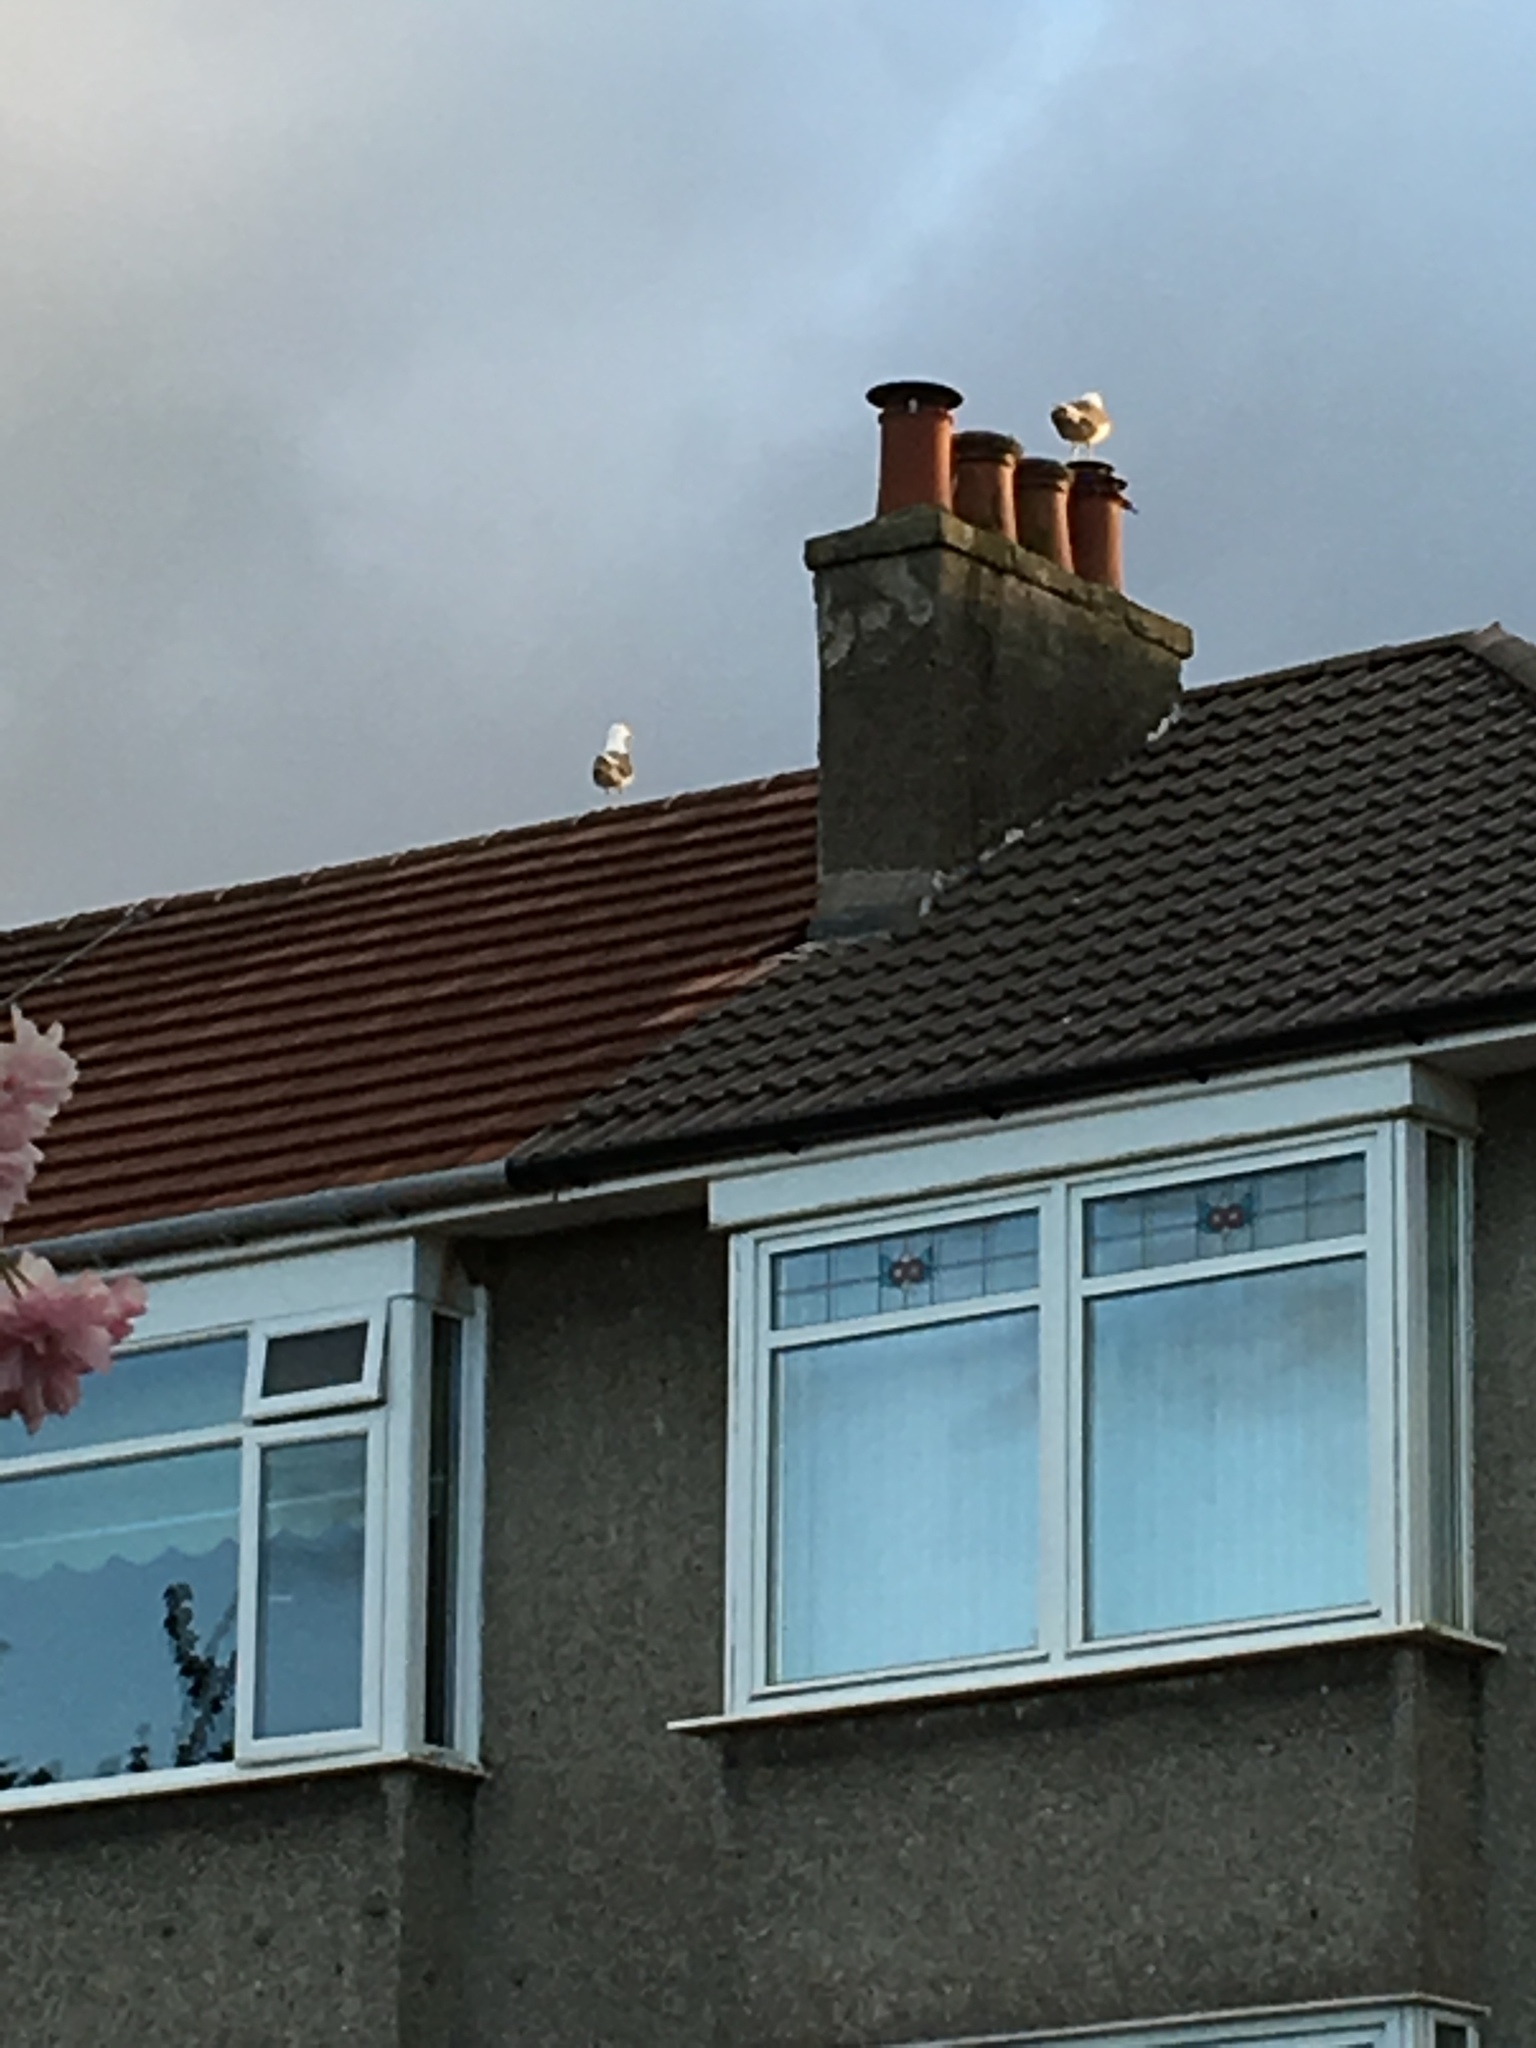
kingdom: Animalia
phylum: Chordata
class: Aves
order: Charadriiformes
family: Laridae
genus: Larus
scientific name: Larus fuscus
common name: Lesser black-backed gull
